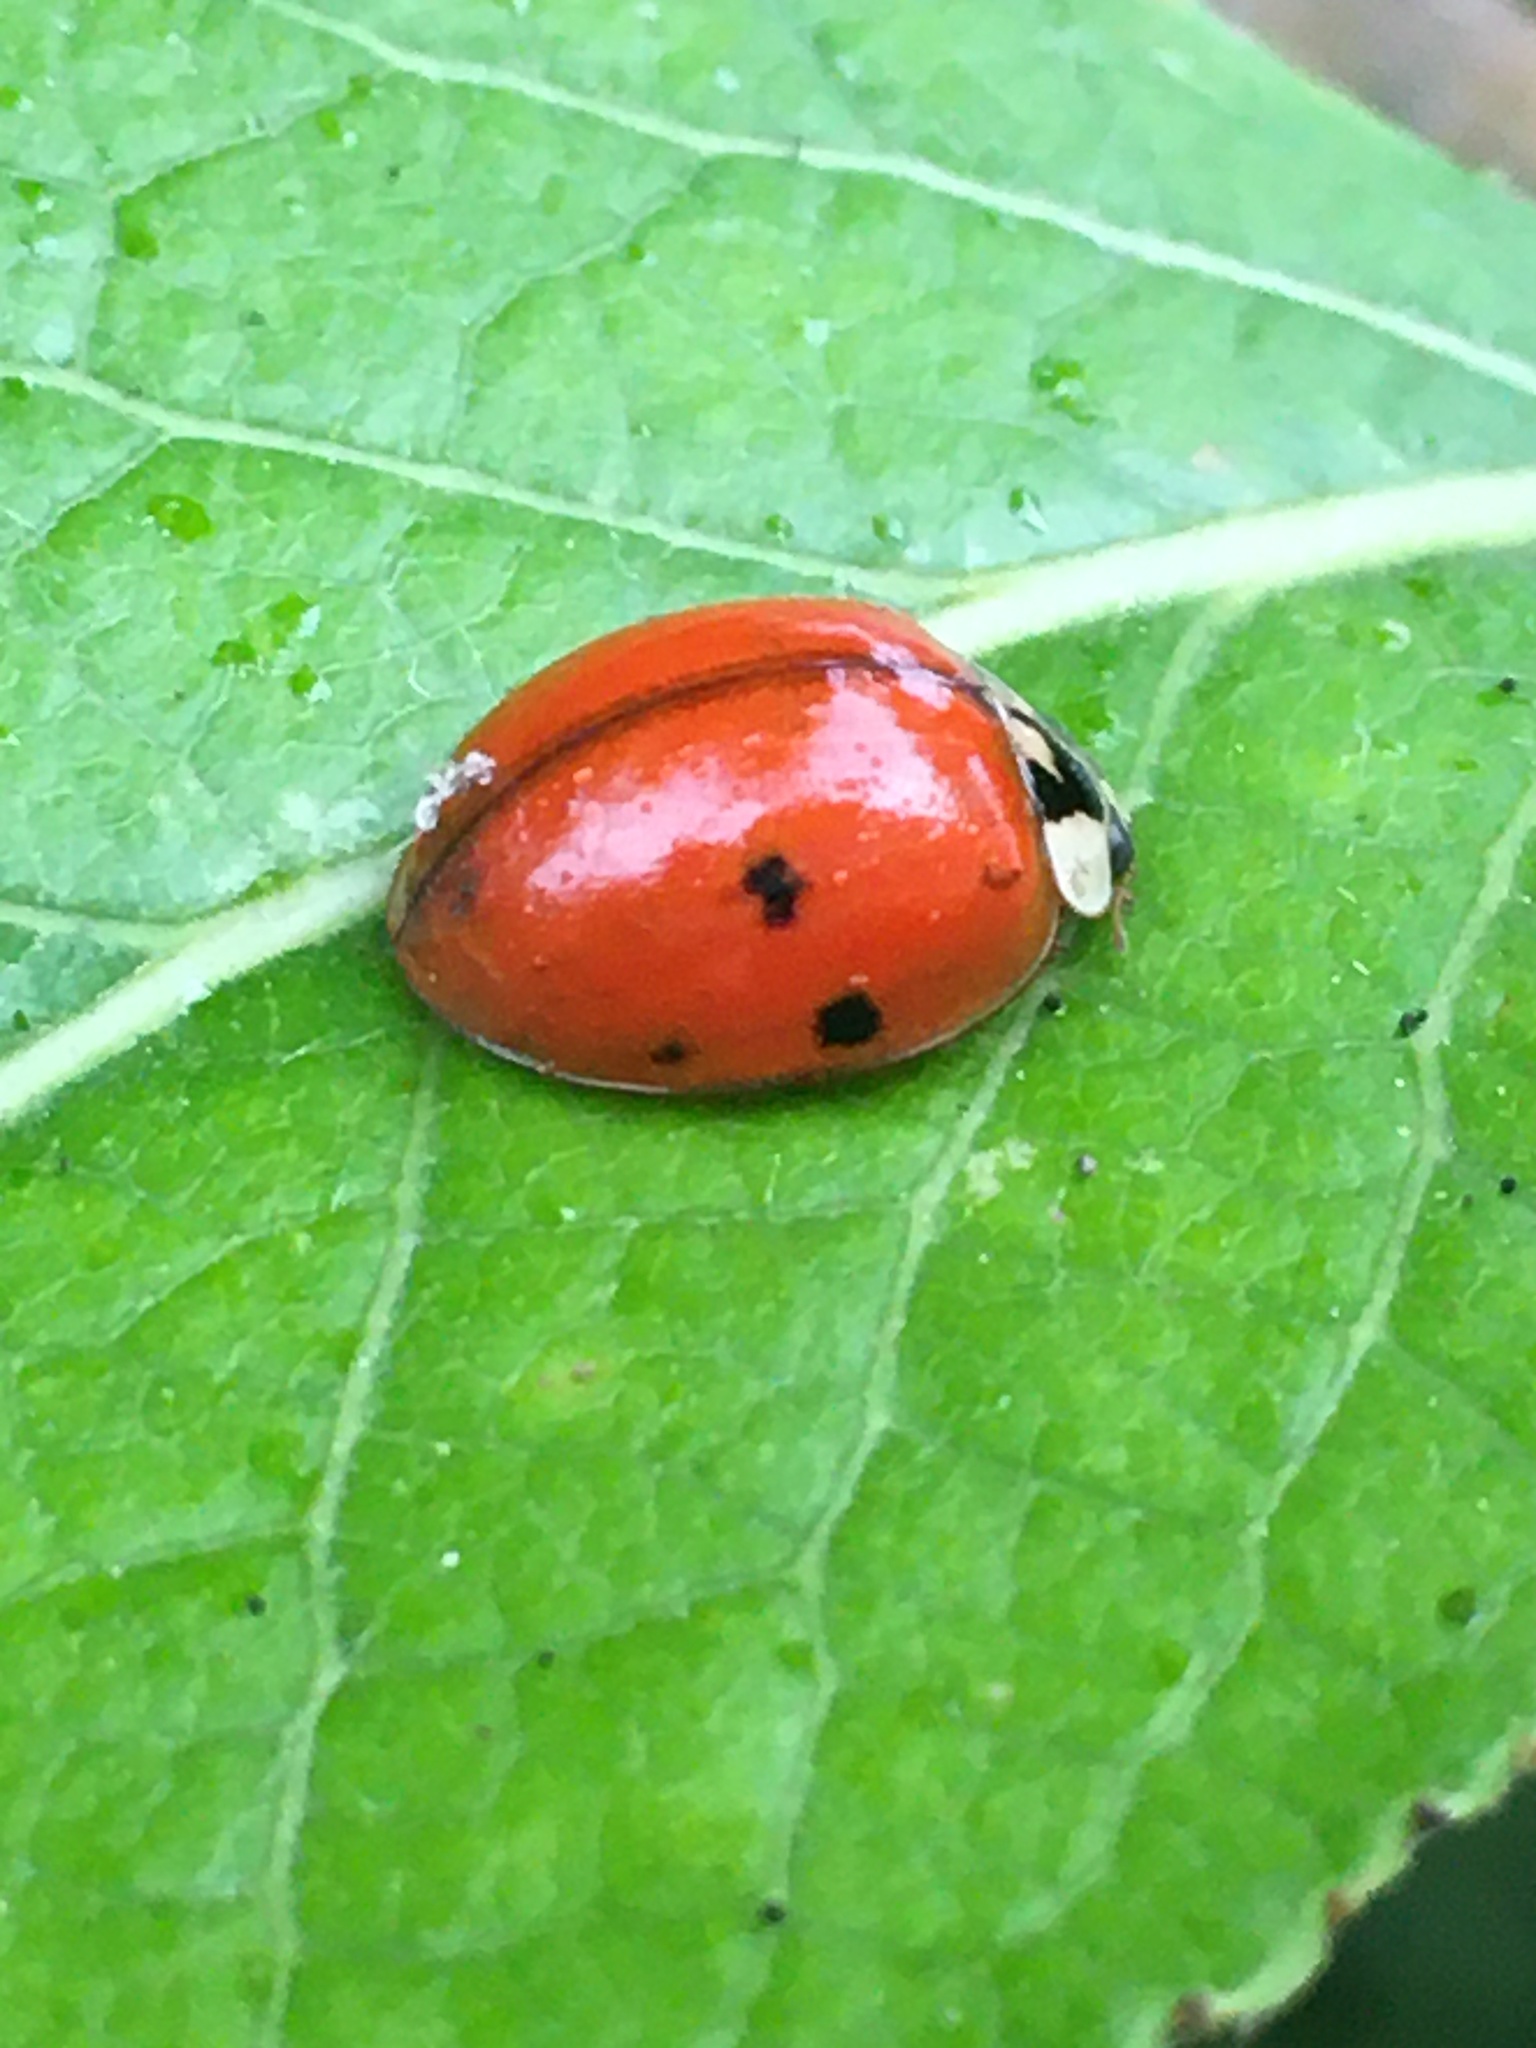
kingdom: Animalia
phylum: Arthropoda
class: Insecta
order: Coleoptera
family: Coccinellidae
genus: Harmonia
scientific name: Harmonia axyridis
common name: Harlequin ladybird
